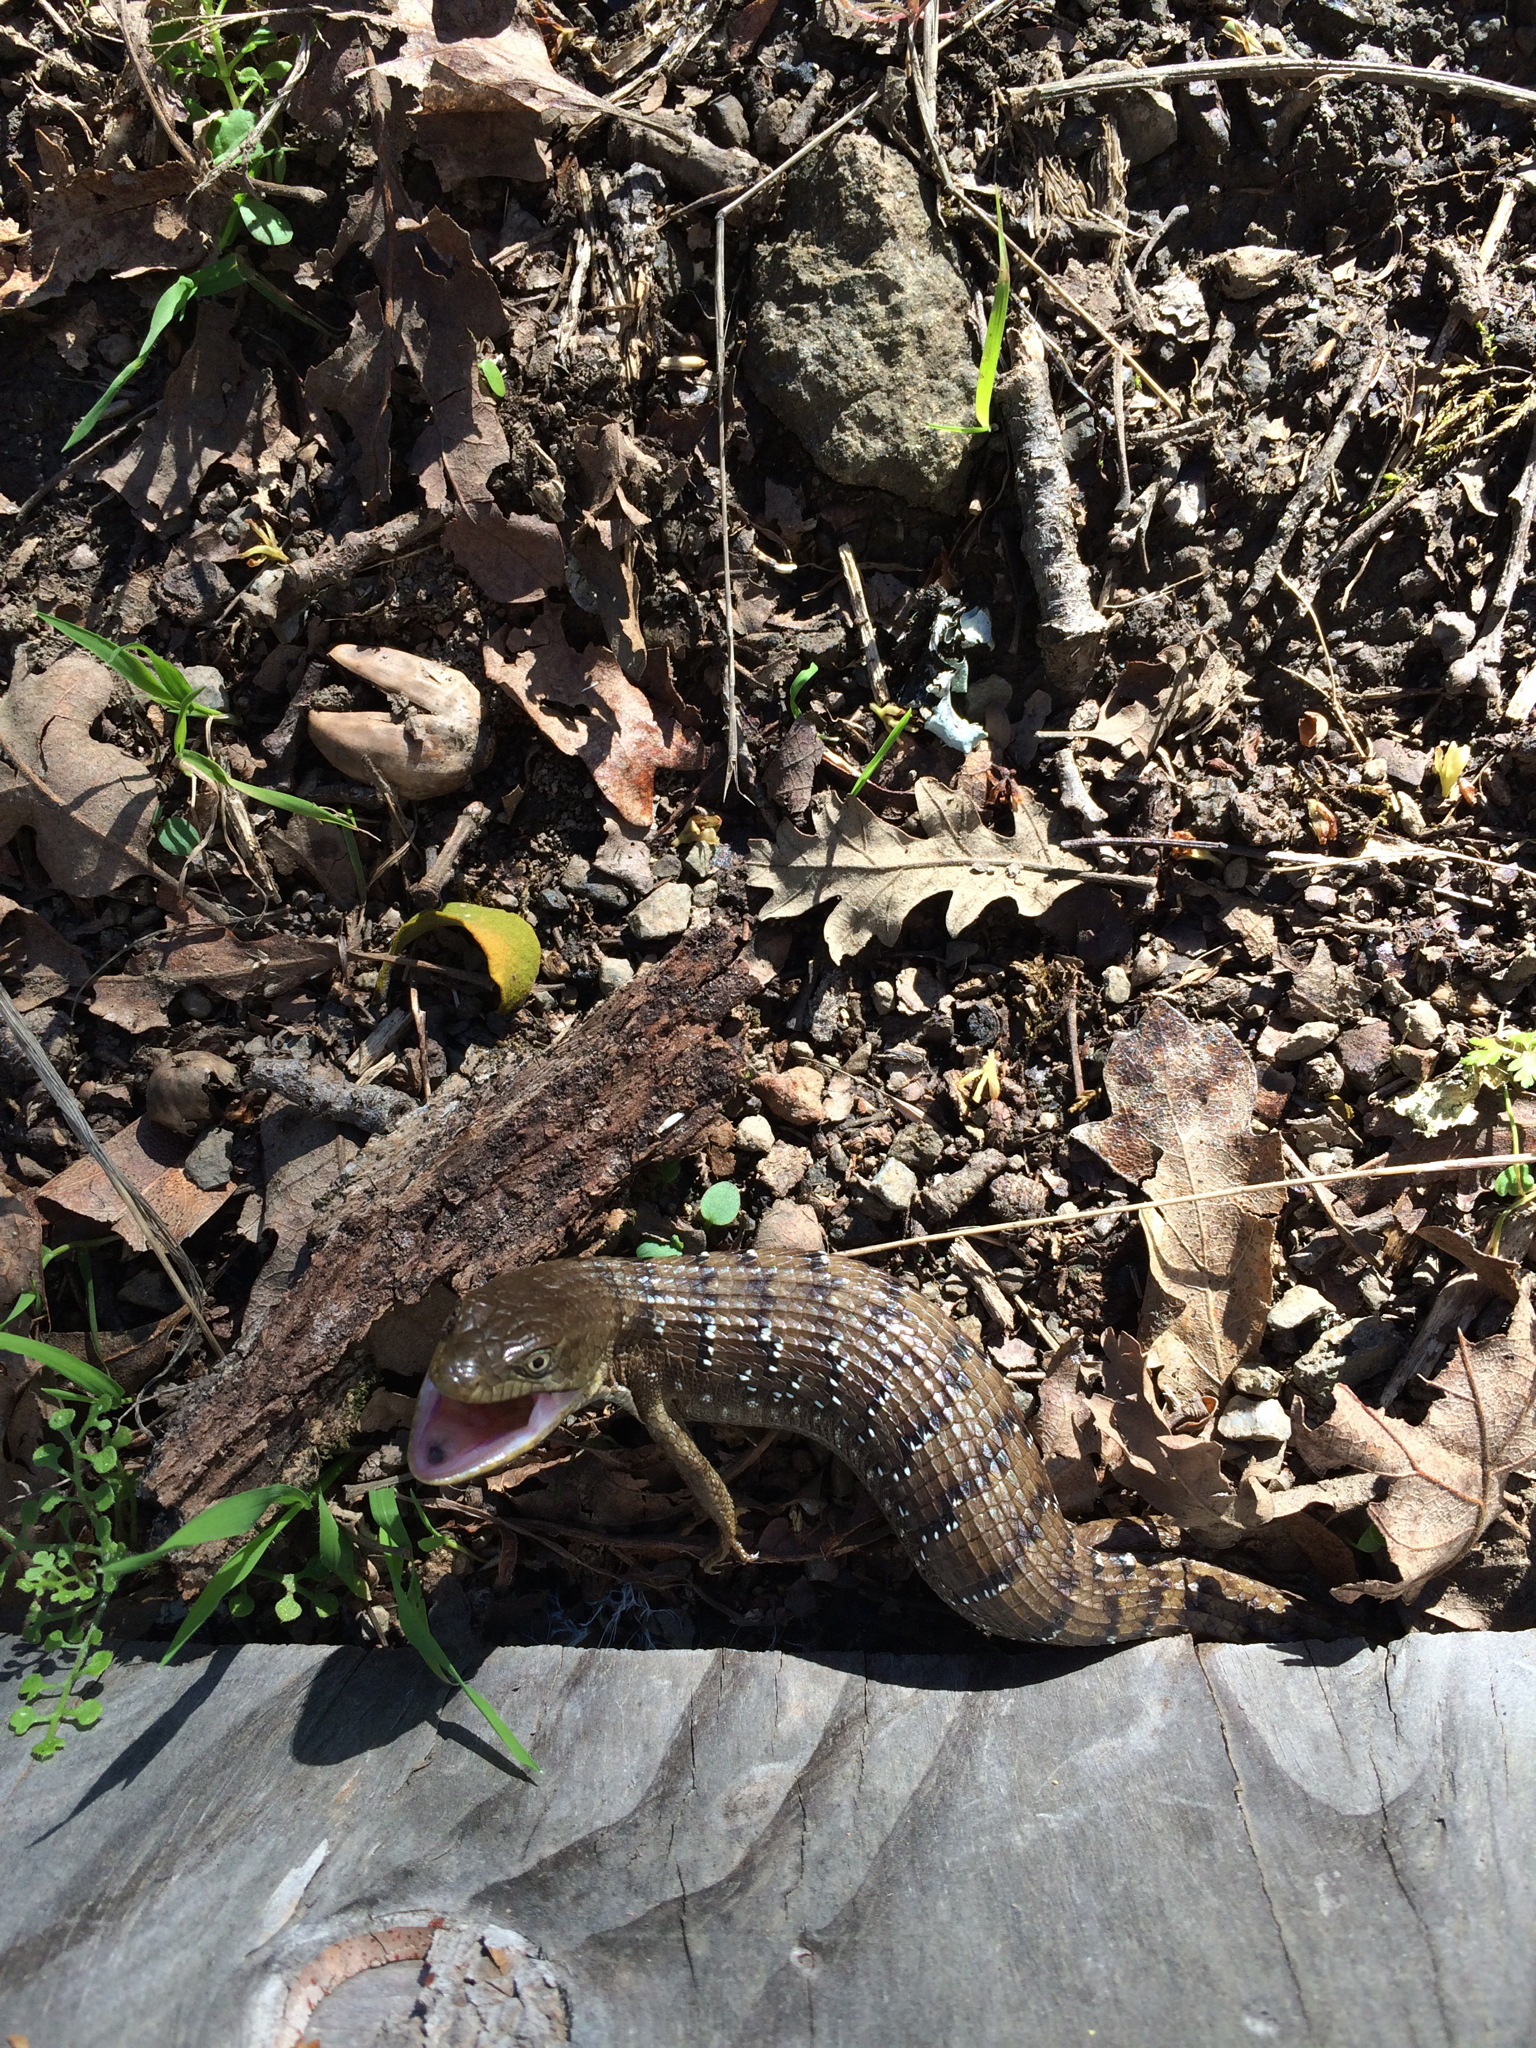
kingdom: Animalia
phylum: Chordata
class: Squamata
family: Anguidae
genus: Elgaria
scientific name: Elgaria multicarinata
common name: Southern alligator lizard
